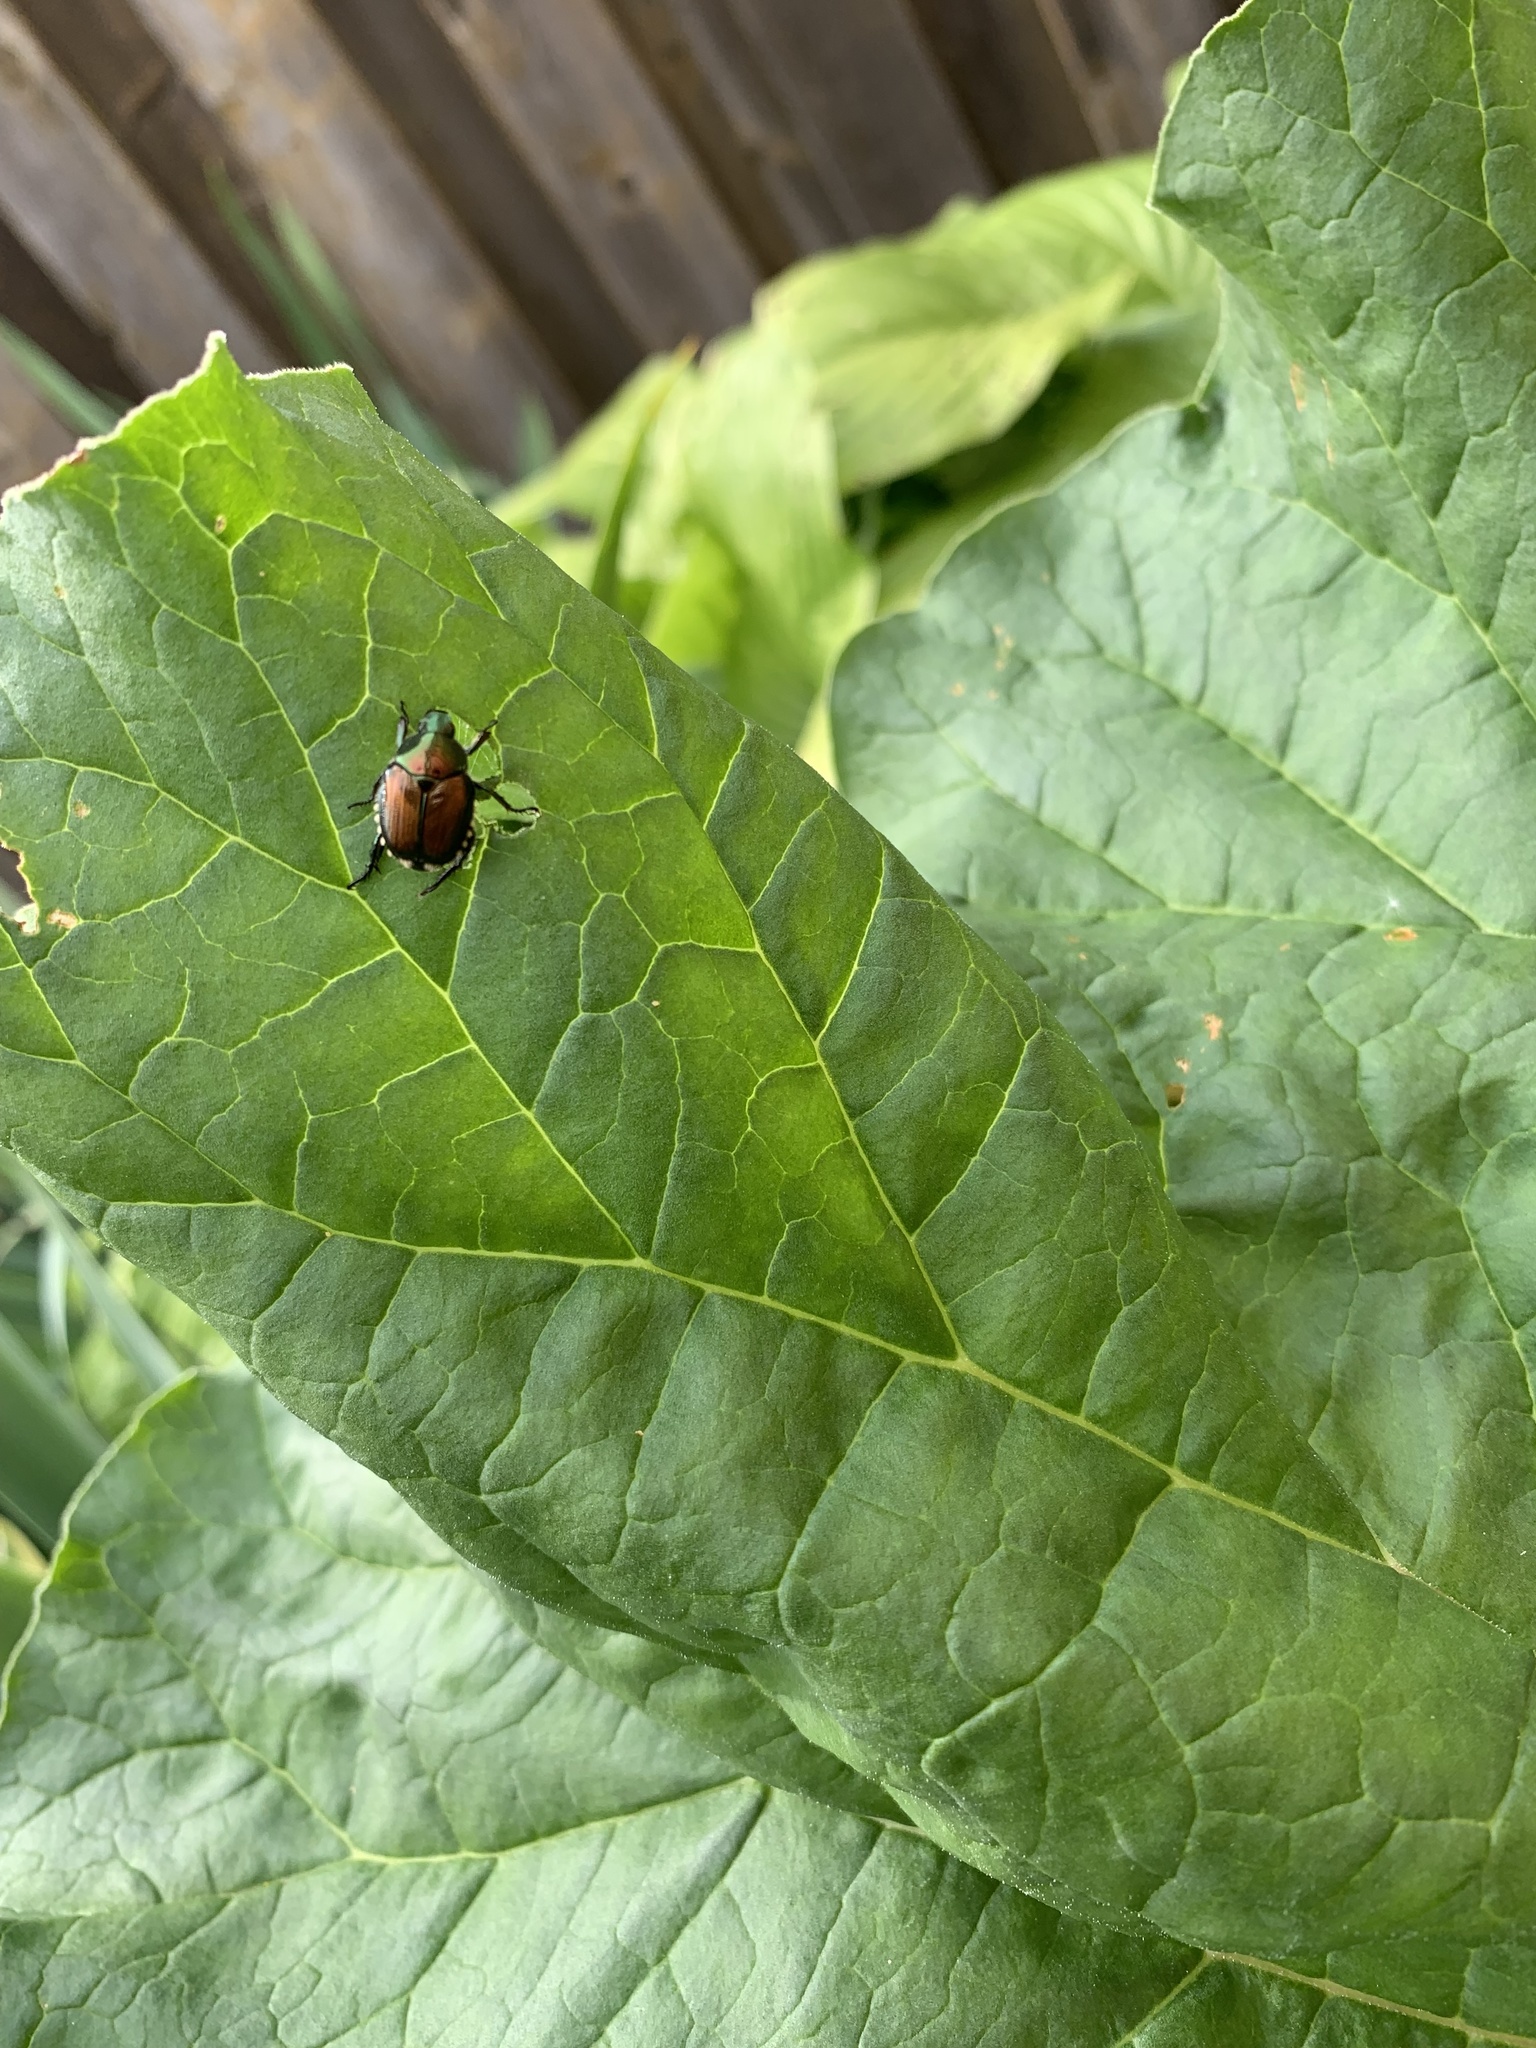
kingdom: Animalia
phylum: Arthropoda
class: Insecta
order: Coleoptera
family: Scarabaeidae
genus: Popillia
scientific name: Popillia japonica
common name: Japanese beetle
